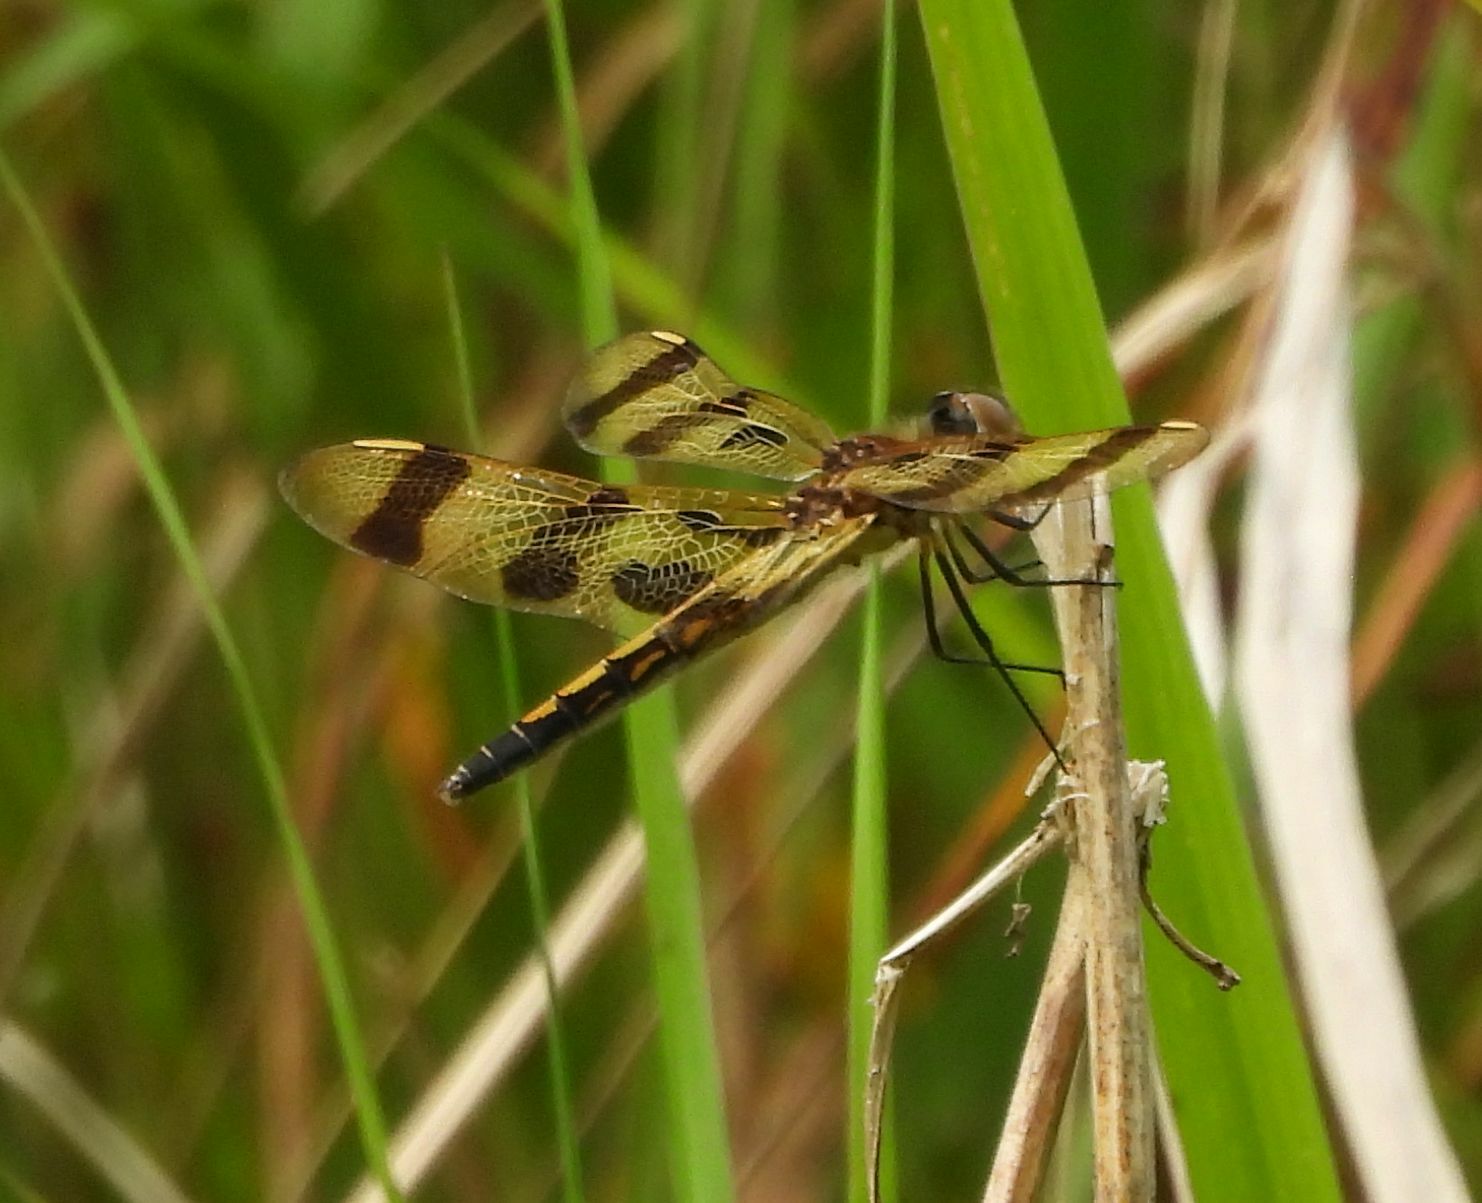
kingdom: Animalia
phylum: Arthropoda
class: Insecta
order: Odonata
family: Libellulidae
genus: Celithemis
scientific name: Celithemis eponina
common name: Halloween pennant
